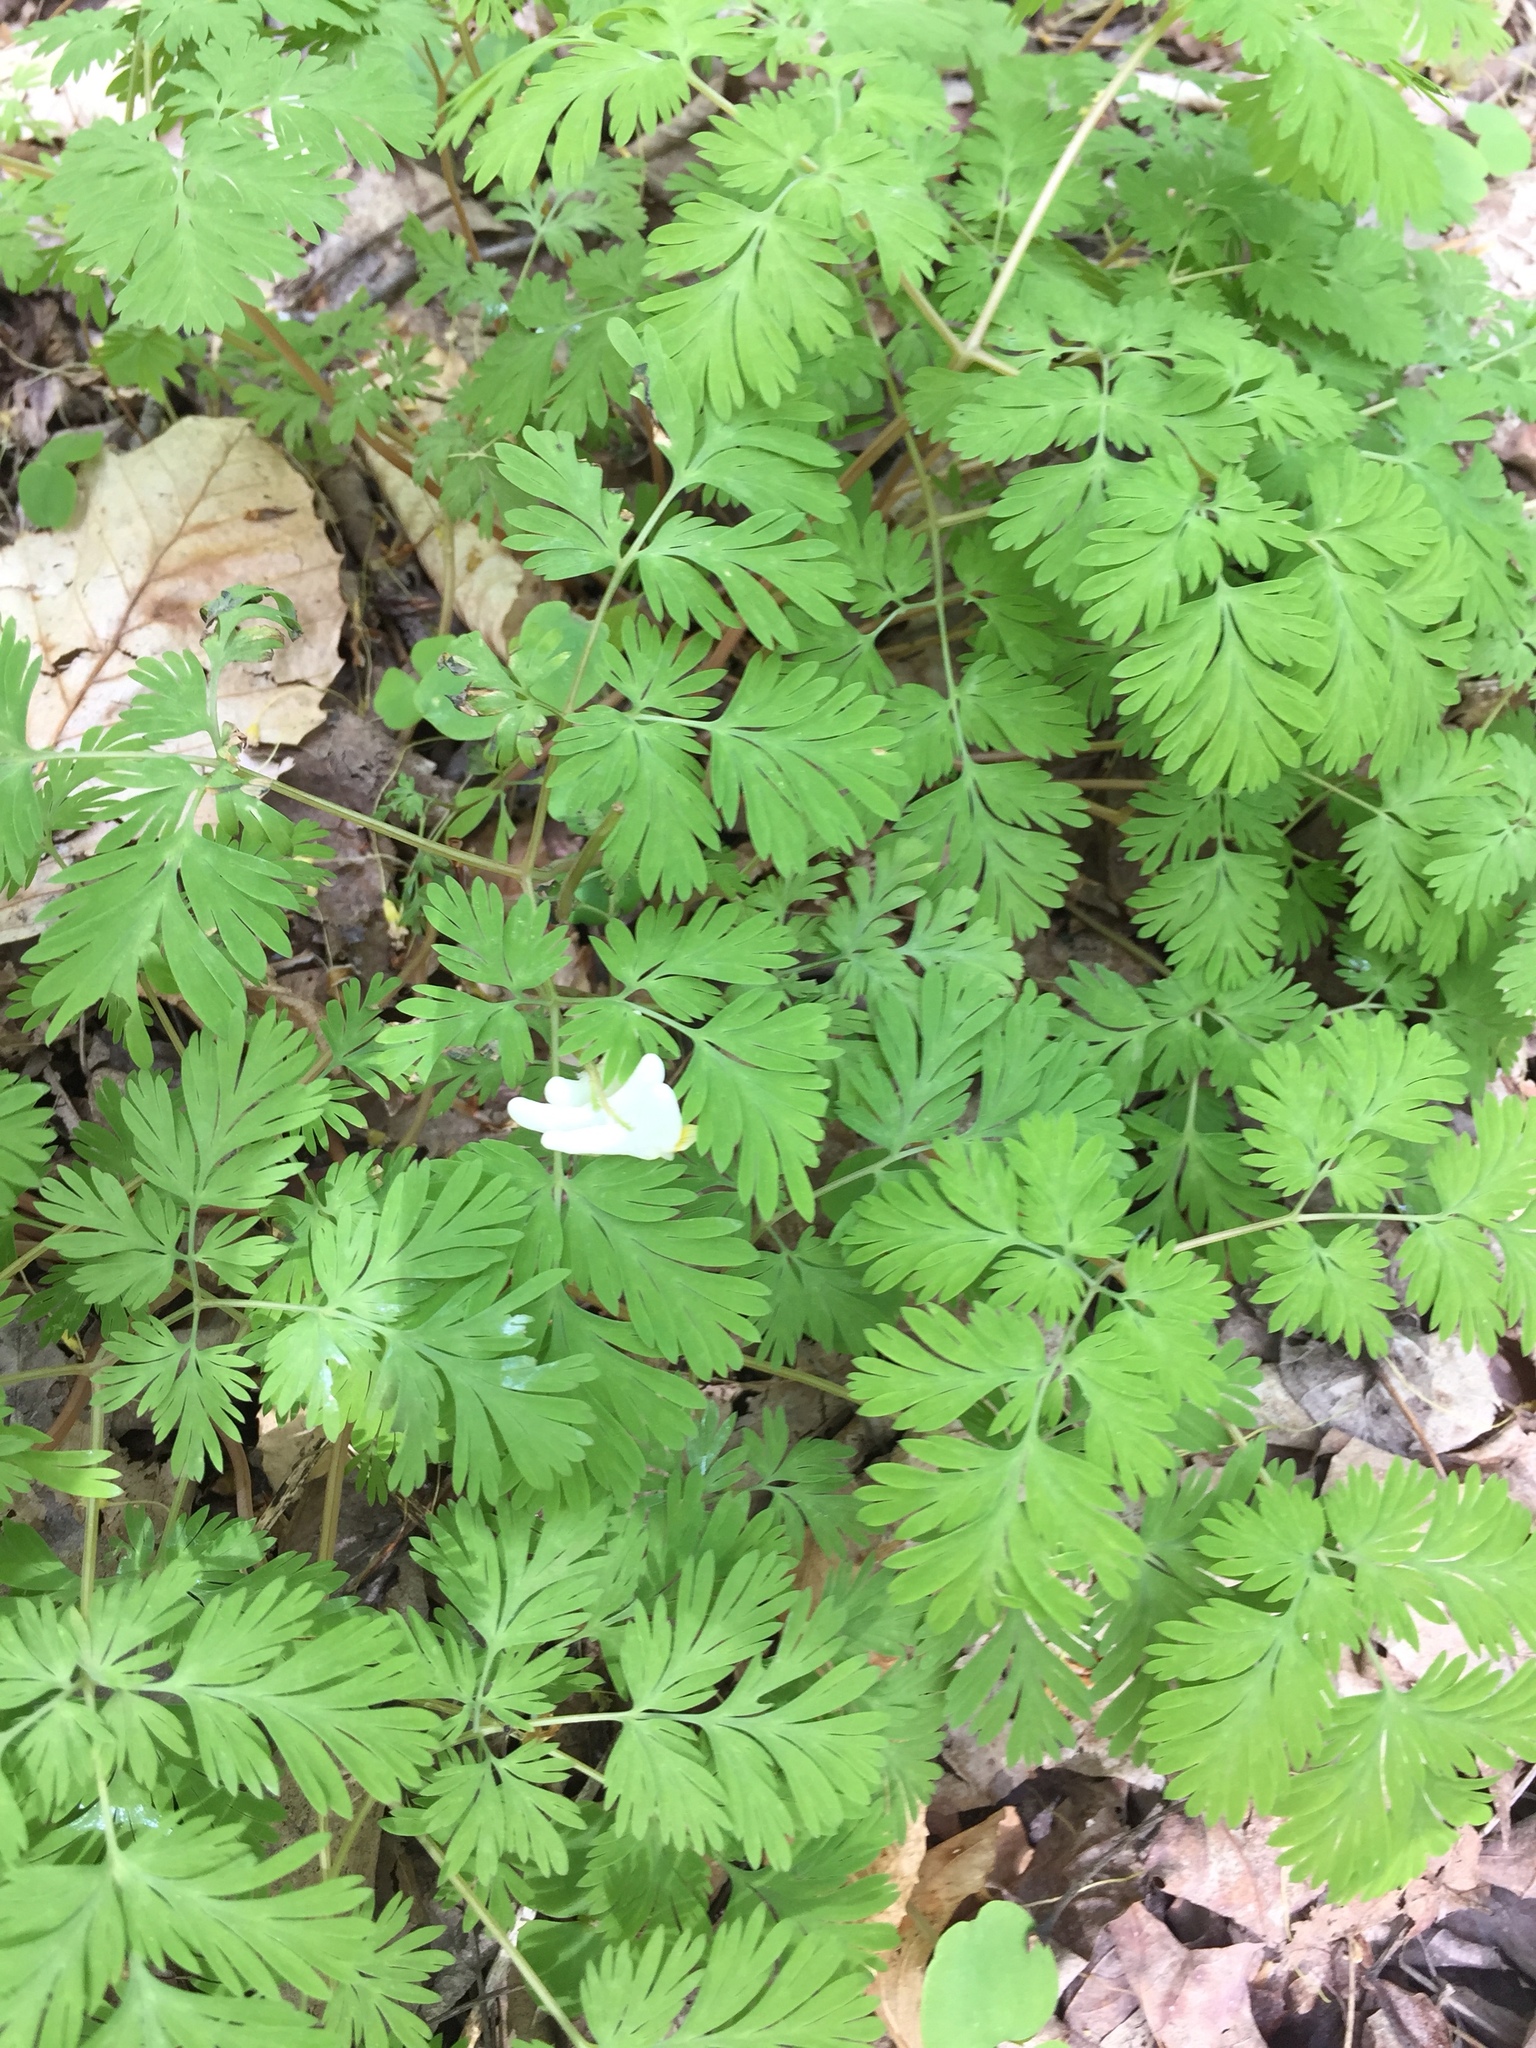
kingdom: Plantae
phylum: Tracheophyta
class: Magnoliopsida
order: Ranunculales
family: Papaveraceae
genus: Dicentra
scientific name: Dicentra cucullaria
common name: Dutchman's breeches
